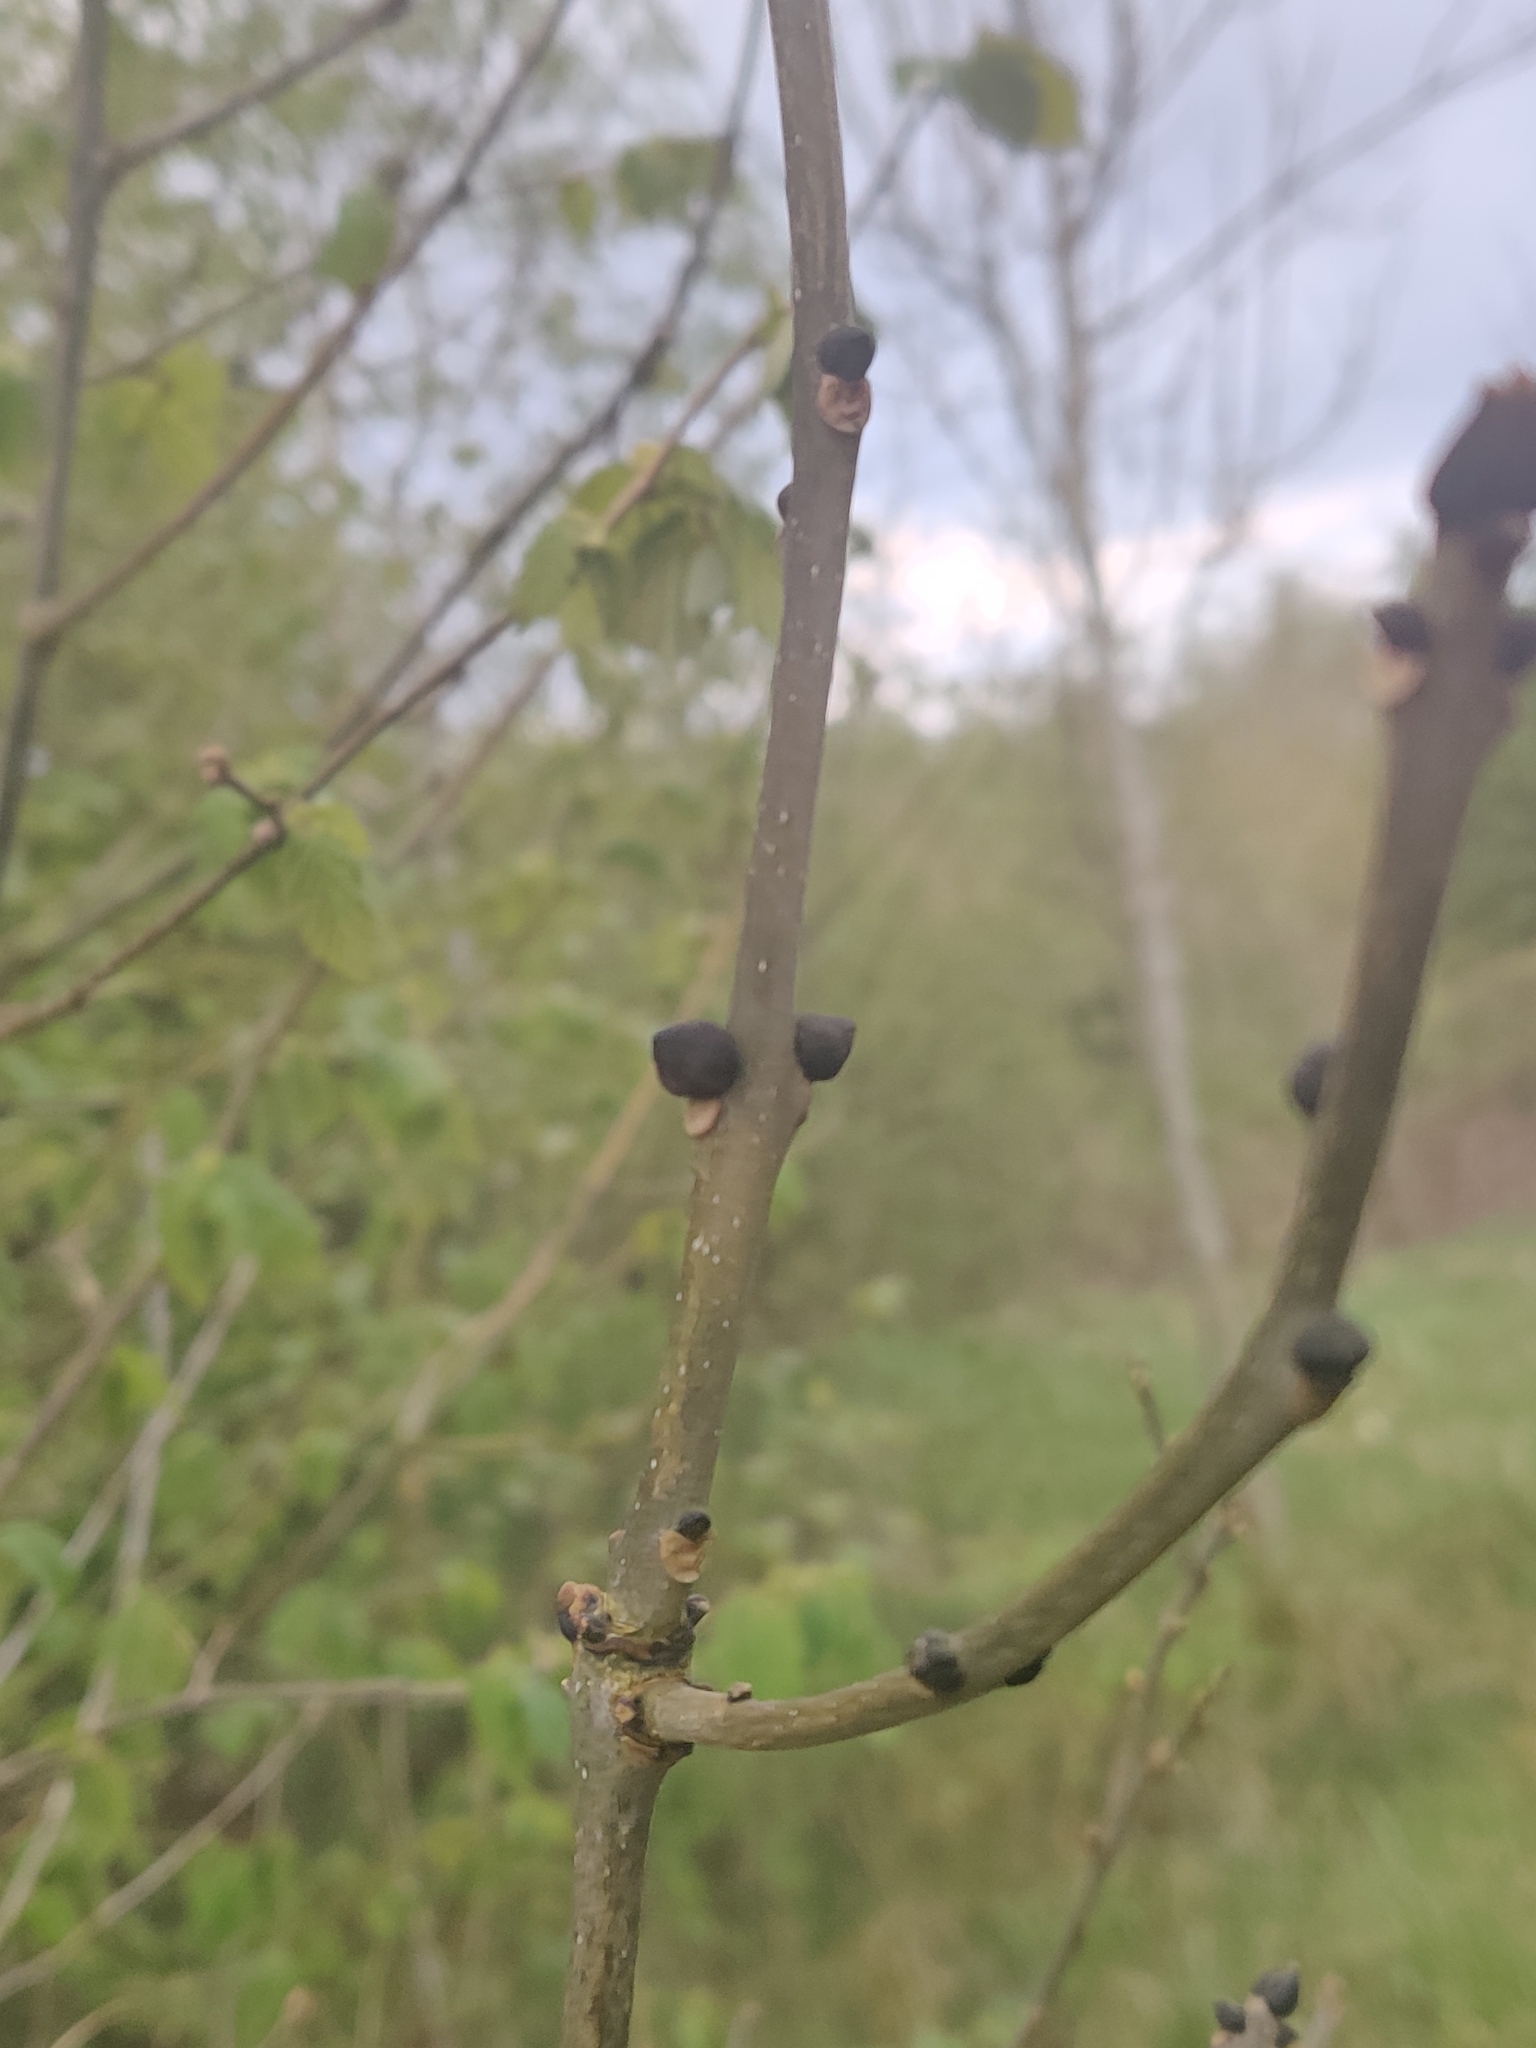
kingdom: Plantae
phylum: Tracheophyta
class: Magnoliopsida
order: Lamiales
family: Oleaceae
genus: Fraxinus
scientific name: Fraxinus excelsior
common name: European ash
